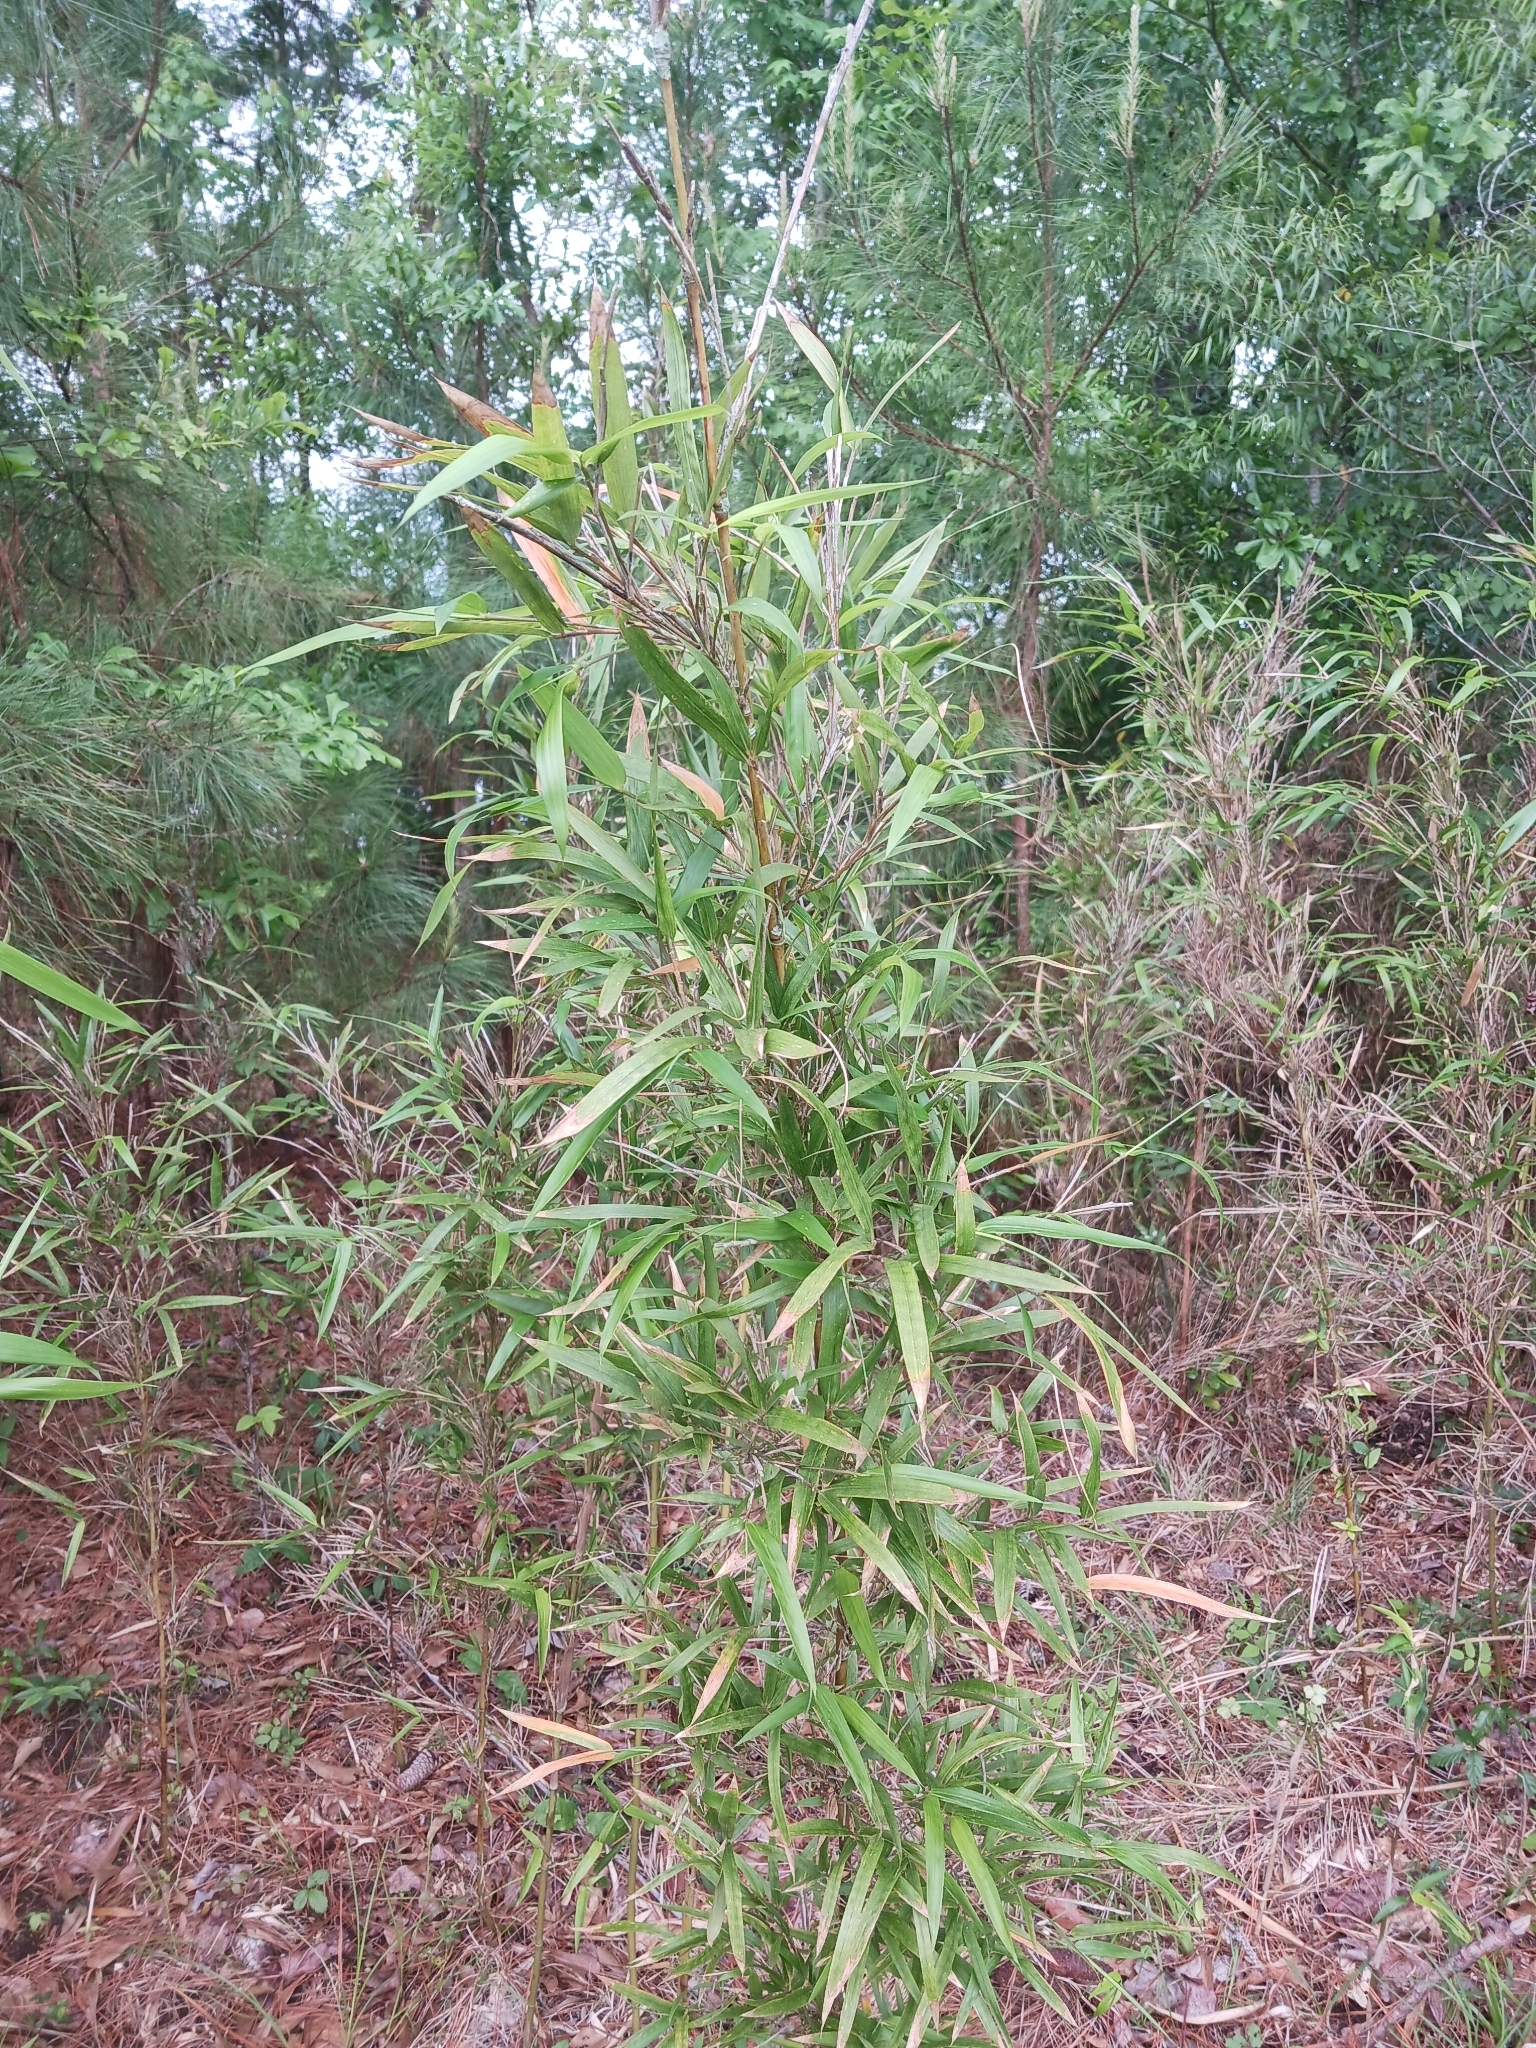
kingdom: Plantae
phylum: Tracheophyta
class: Liliopsida
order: Poales
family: Poaceae
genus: Arundinaria
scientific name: Arundinaria gigantea
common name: Giant cane
